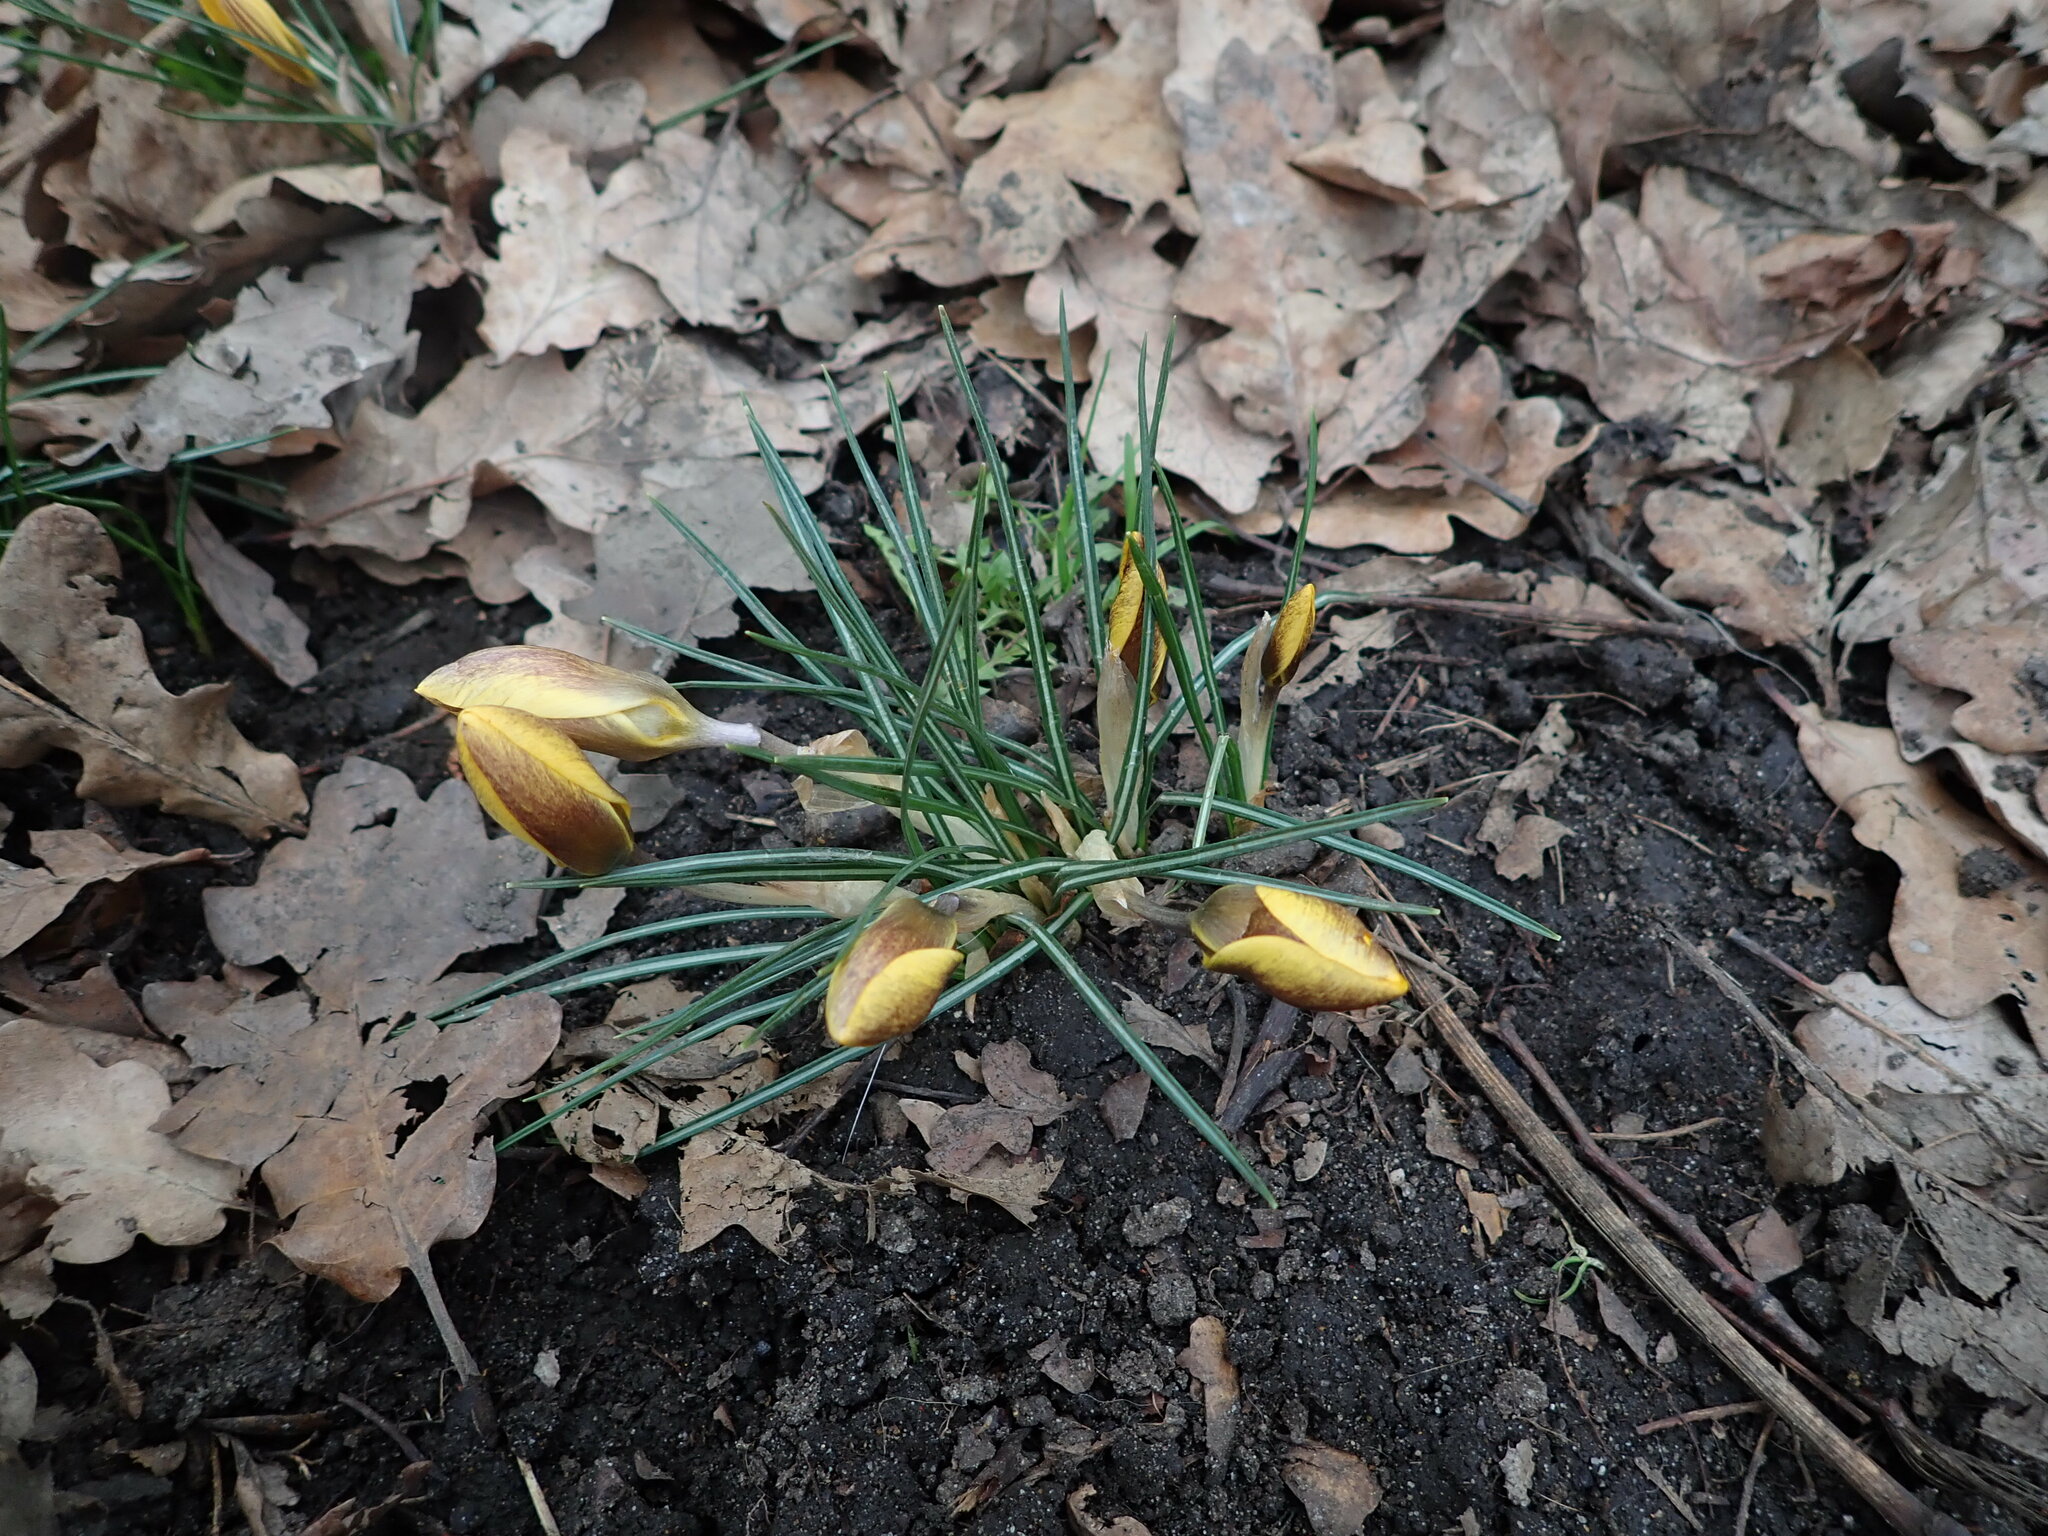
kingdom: Plantae
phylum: Tracheophyta
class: Liliopsida
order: Asparagales
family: Iridaceae
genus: Crocus
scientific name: Crocus chrysanthus
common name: Golden crocus
